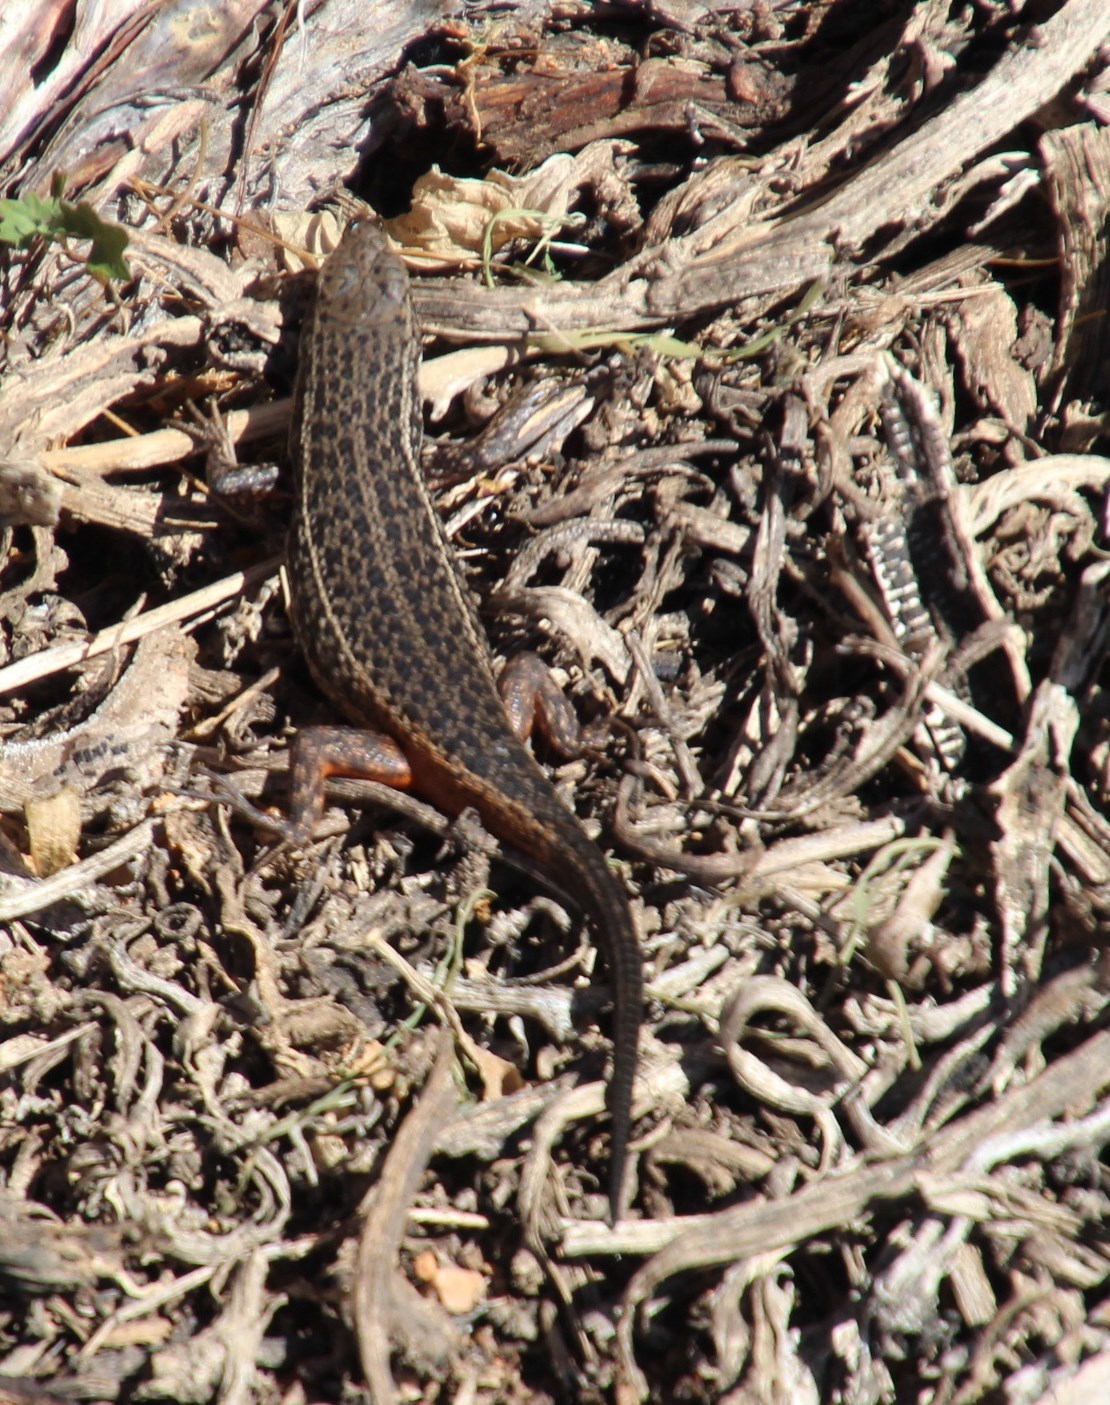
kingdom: Animalia
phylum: Chordata
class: Squamata
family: Scincidae
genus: Trachylepis
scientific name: Trachylepis variegata
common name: Variegated skink
